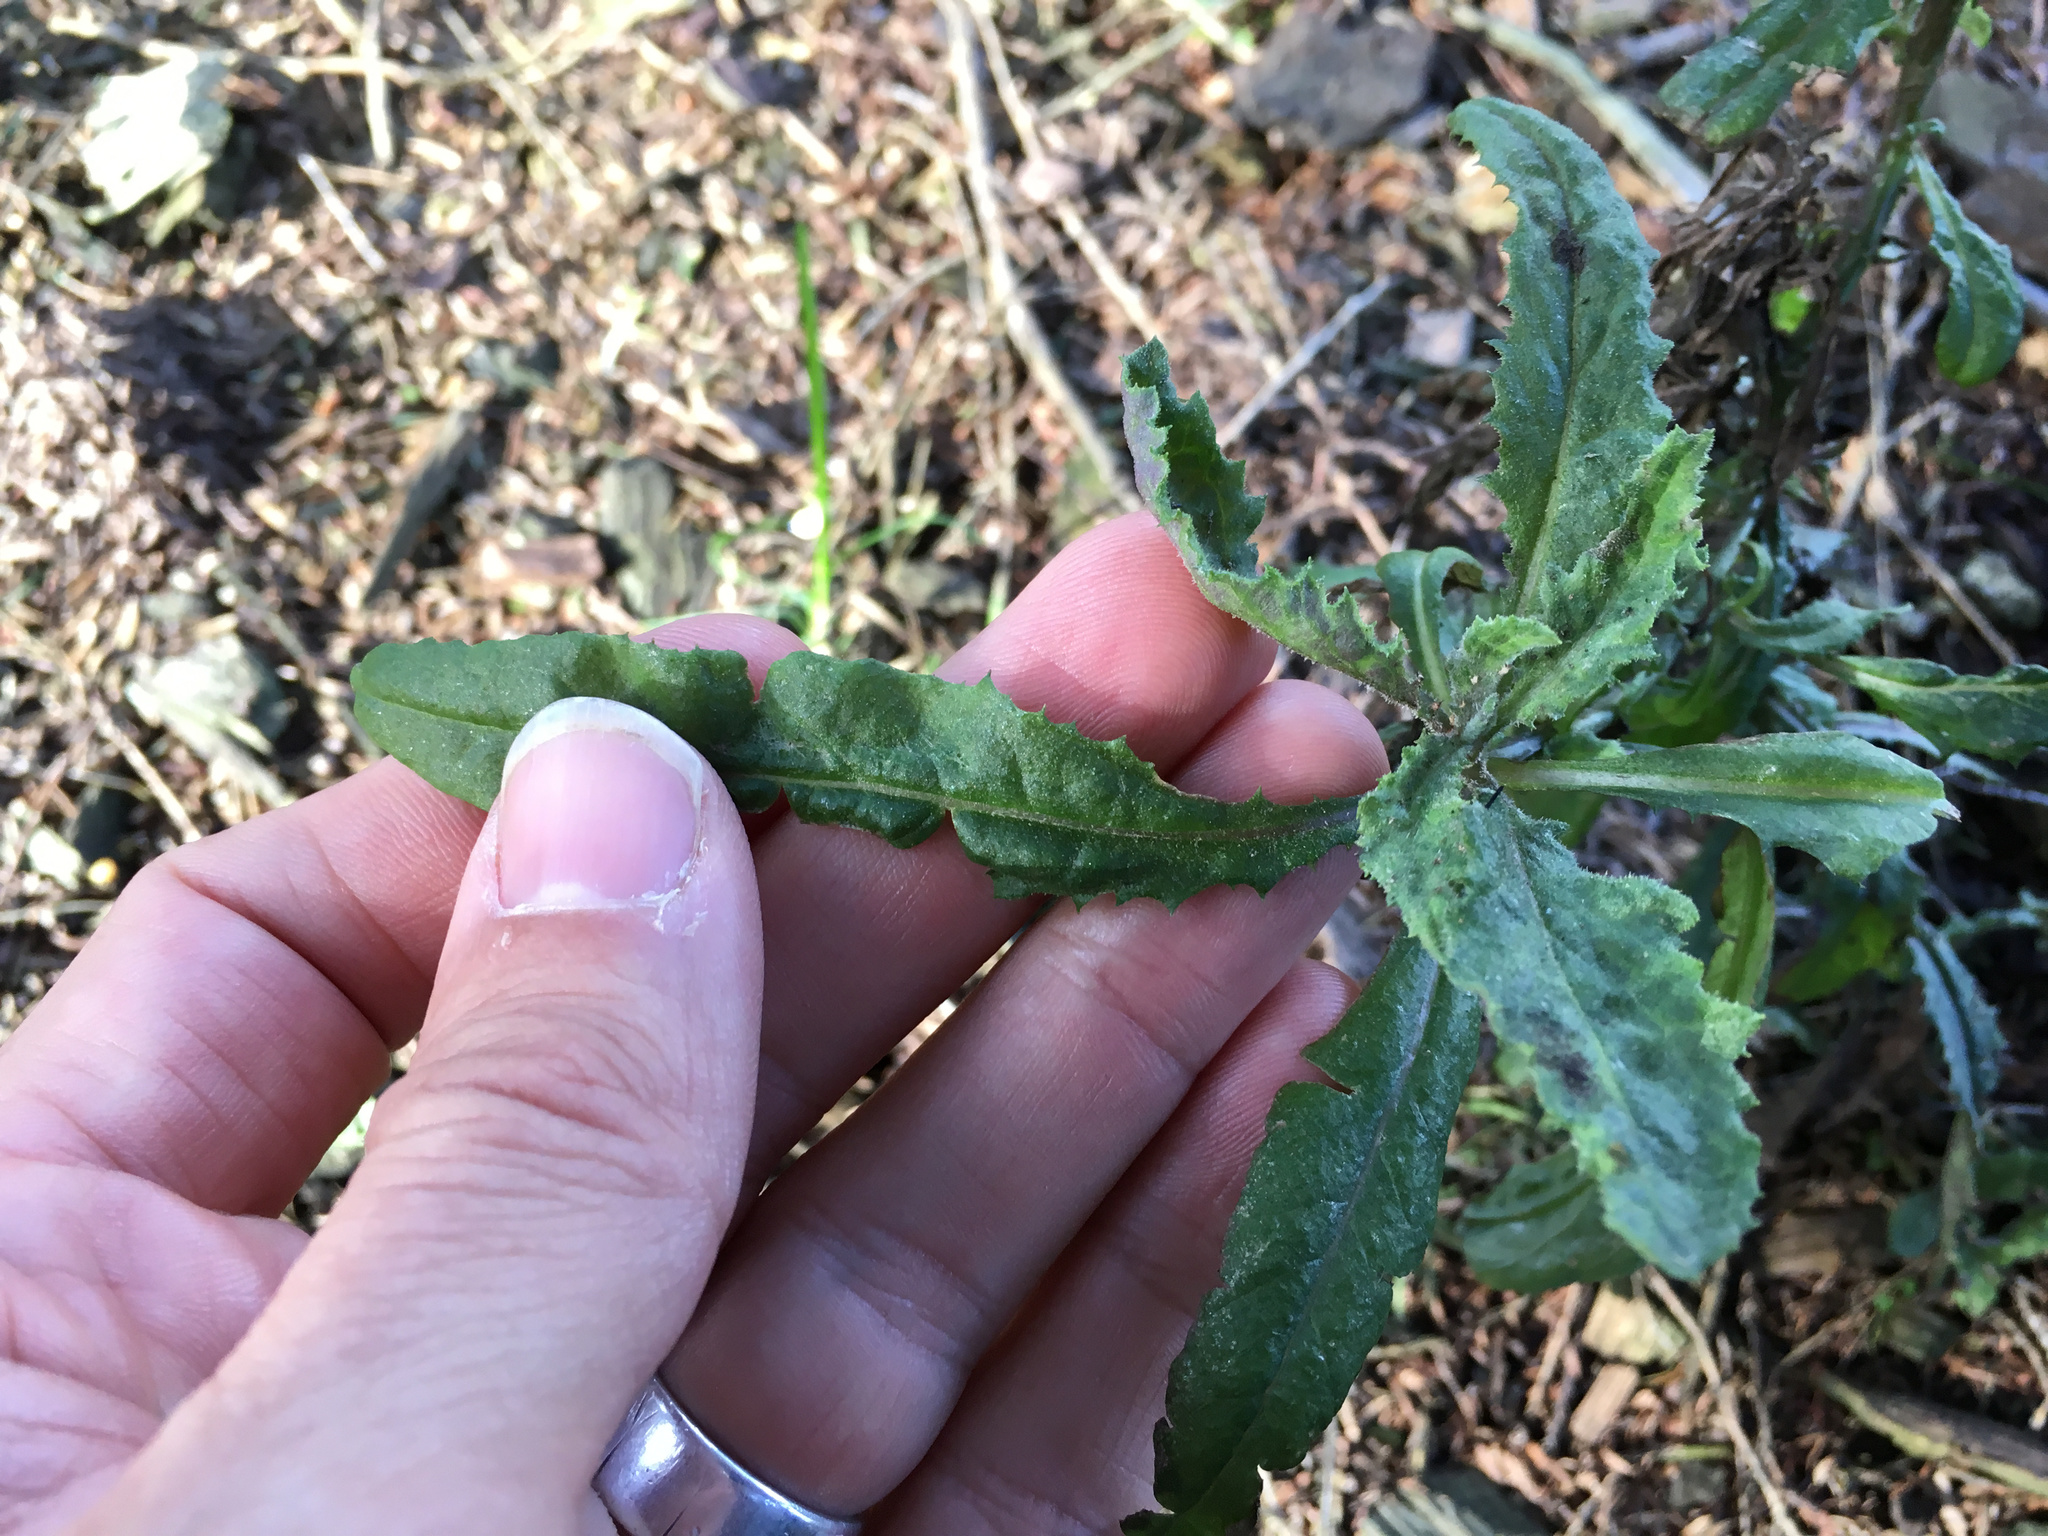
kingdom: Plantae
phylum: Tracheophyta
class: Magnoliopsida
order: Asterales
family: Asteraceae
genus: Senecio
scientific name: Senecio minimus
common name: Toothed fireweed
